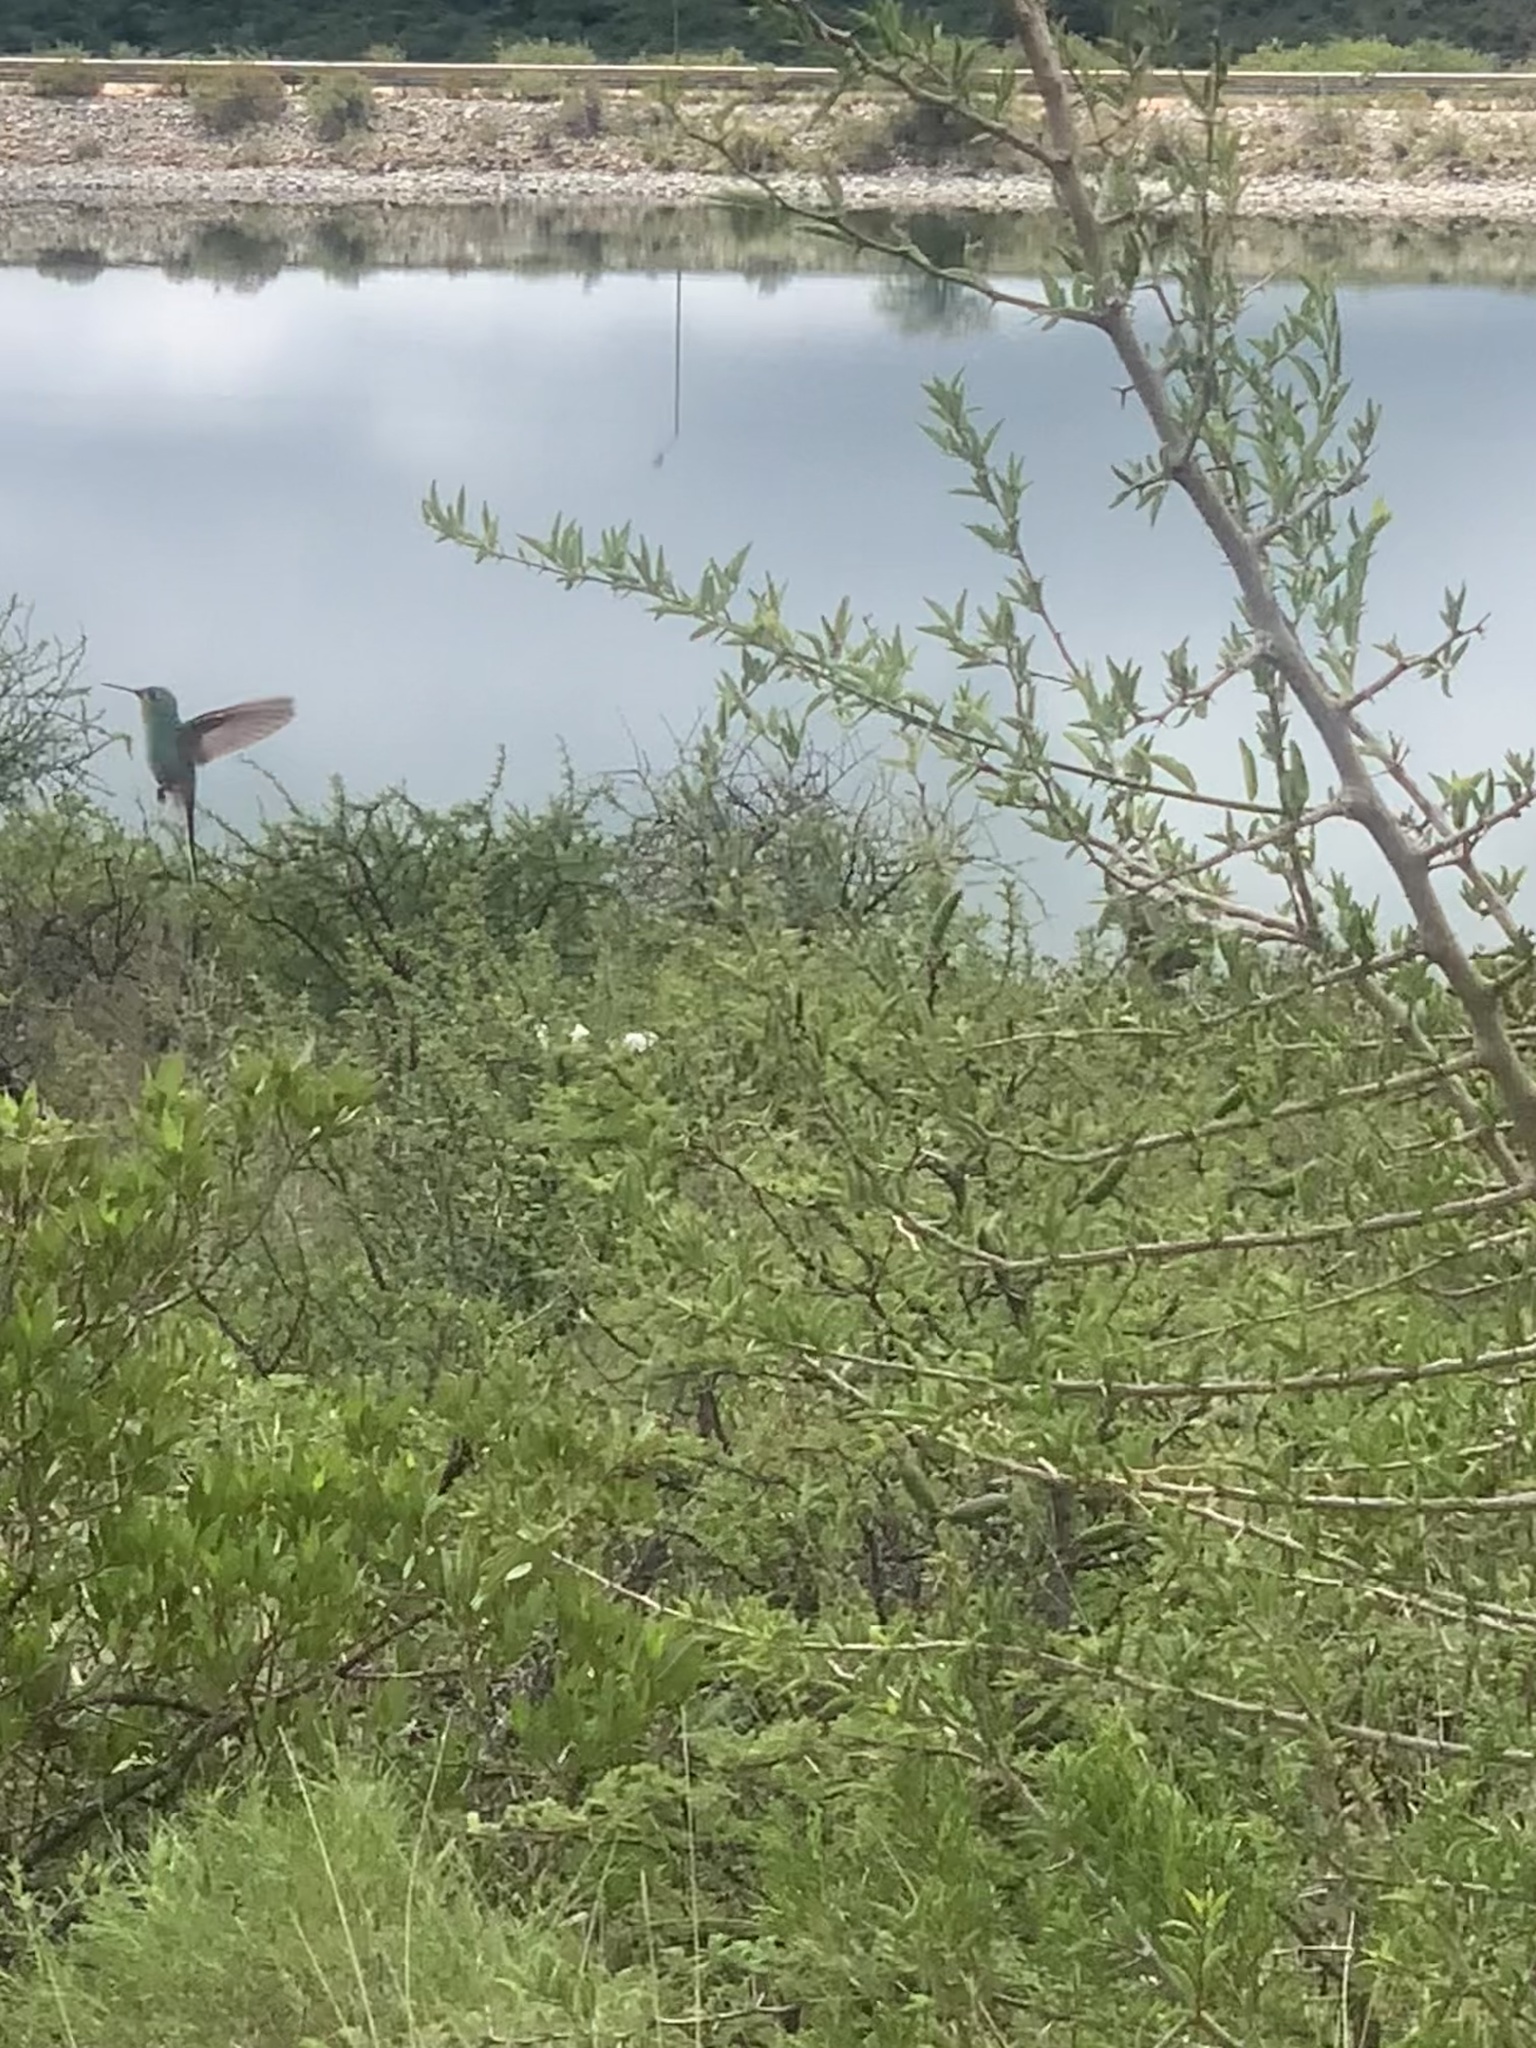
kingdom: Animalia
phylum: Chordata
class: Aves
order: Apodiformes
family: Trochilidae
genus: Chlorostilbon
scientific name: Chlorostilbon lucidus
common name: Glittering-bellied emerald
